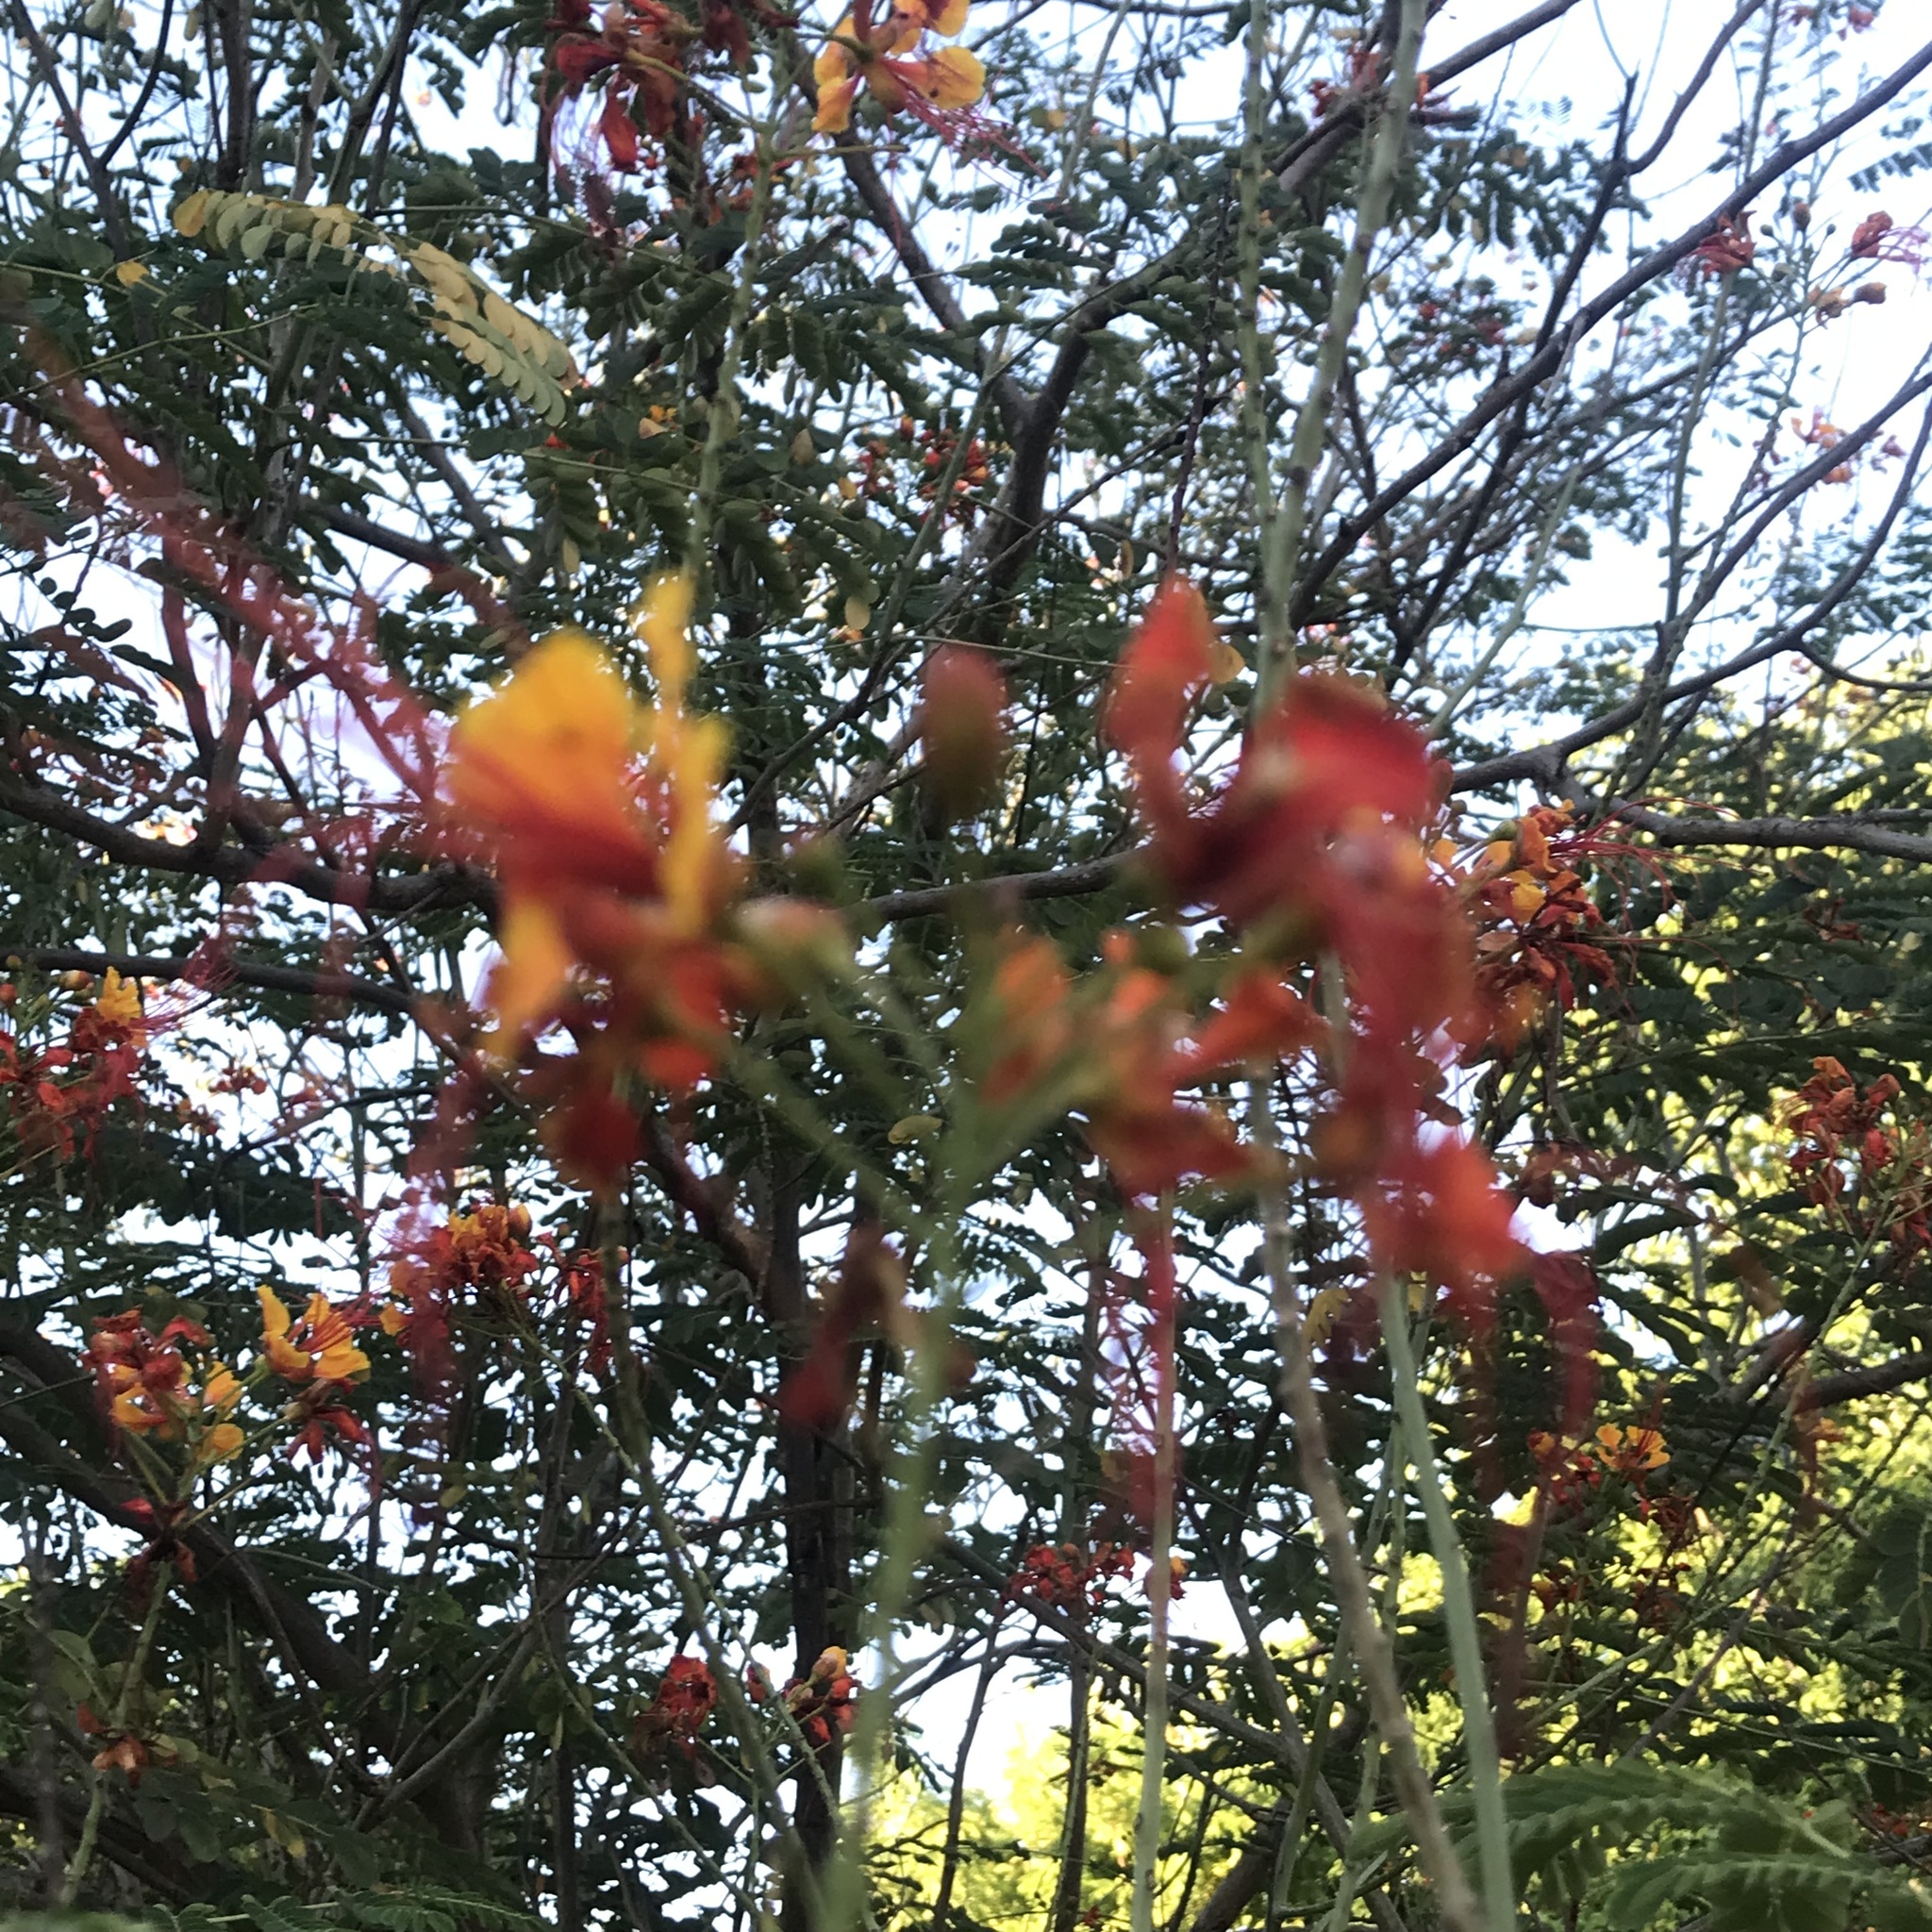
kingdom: Plantae
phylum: Tracheophyta
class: Magnoliopsida
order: Fabales
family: Fabaceae
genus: Caesalpinia
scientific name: Caesalpinia pulcherrima
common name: Pride-of-barbados
